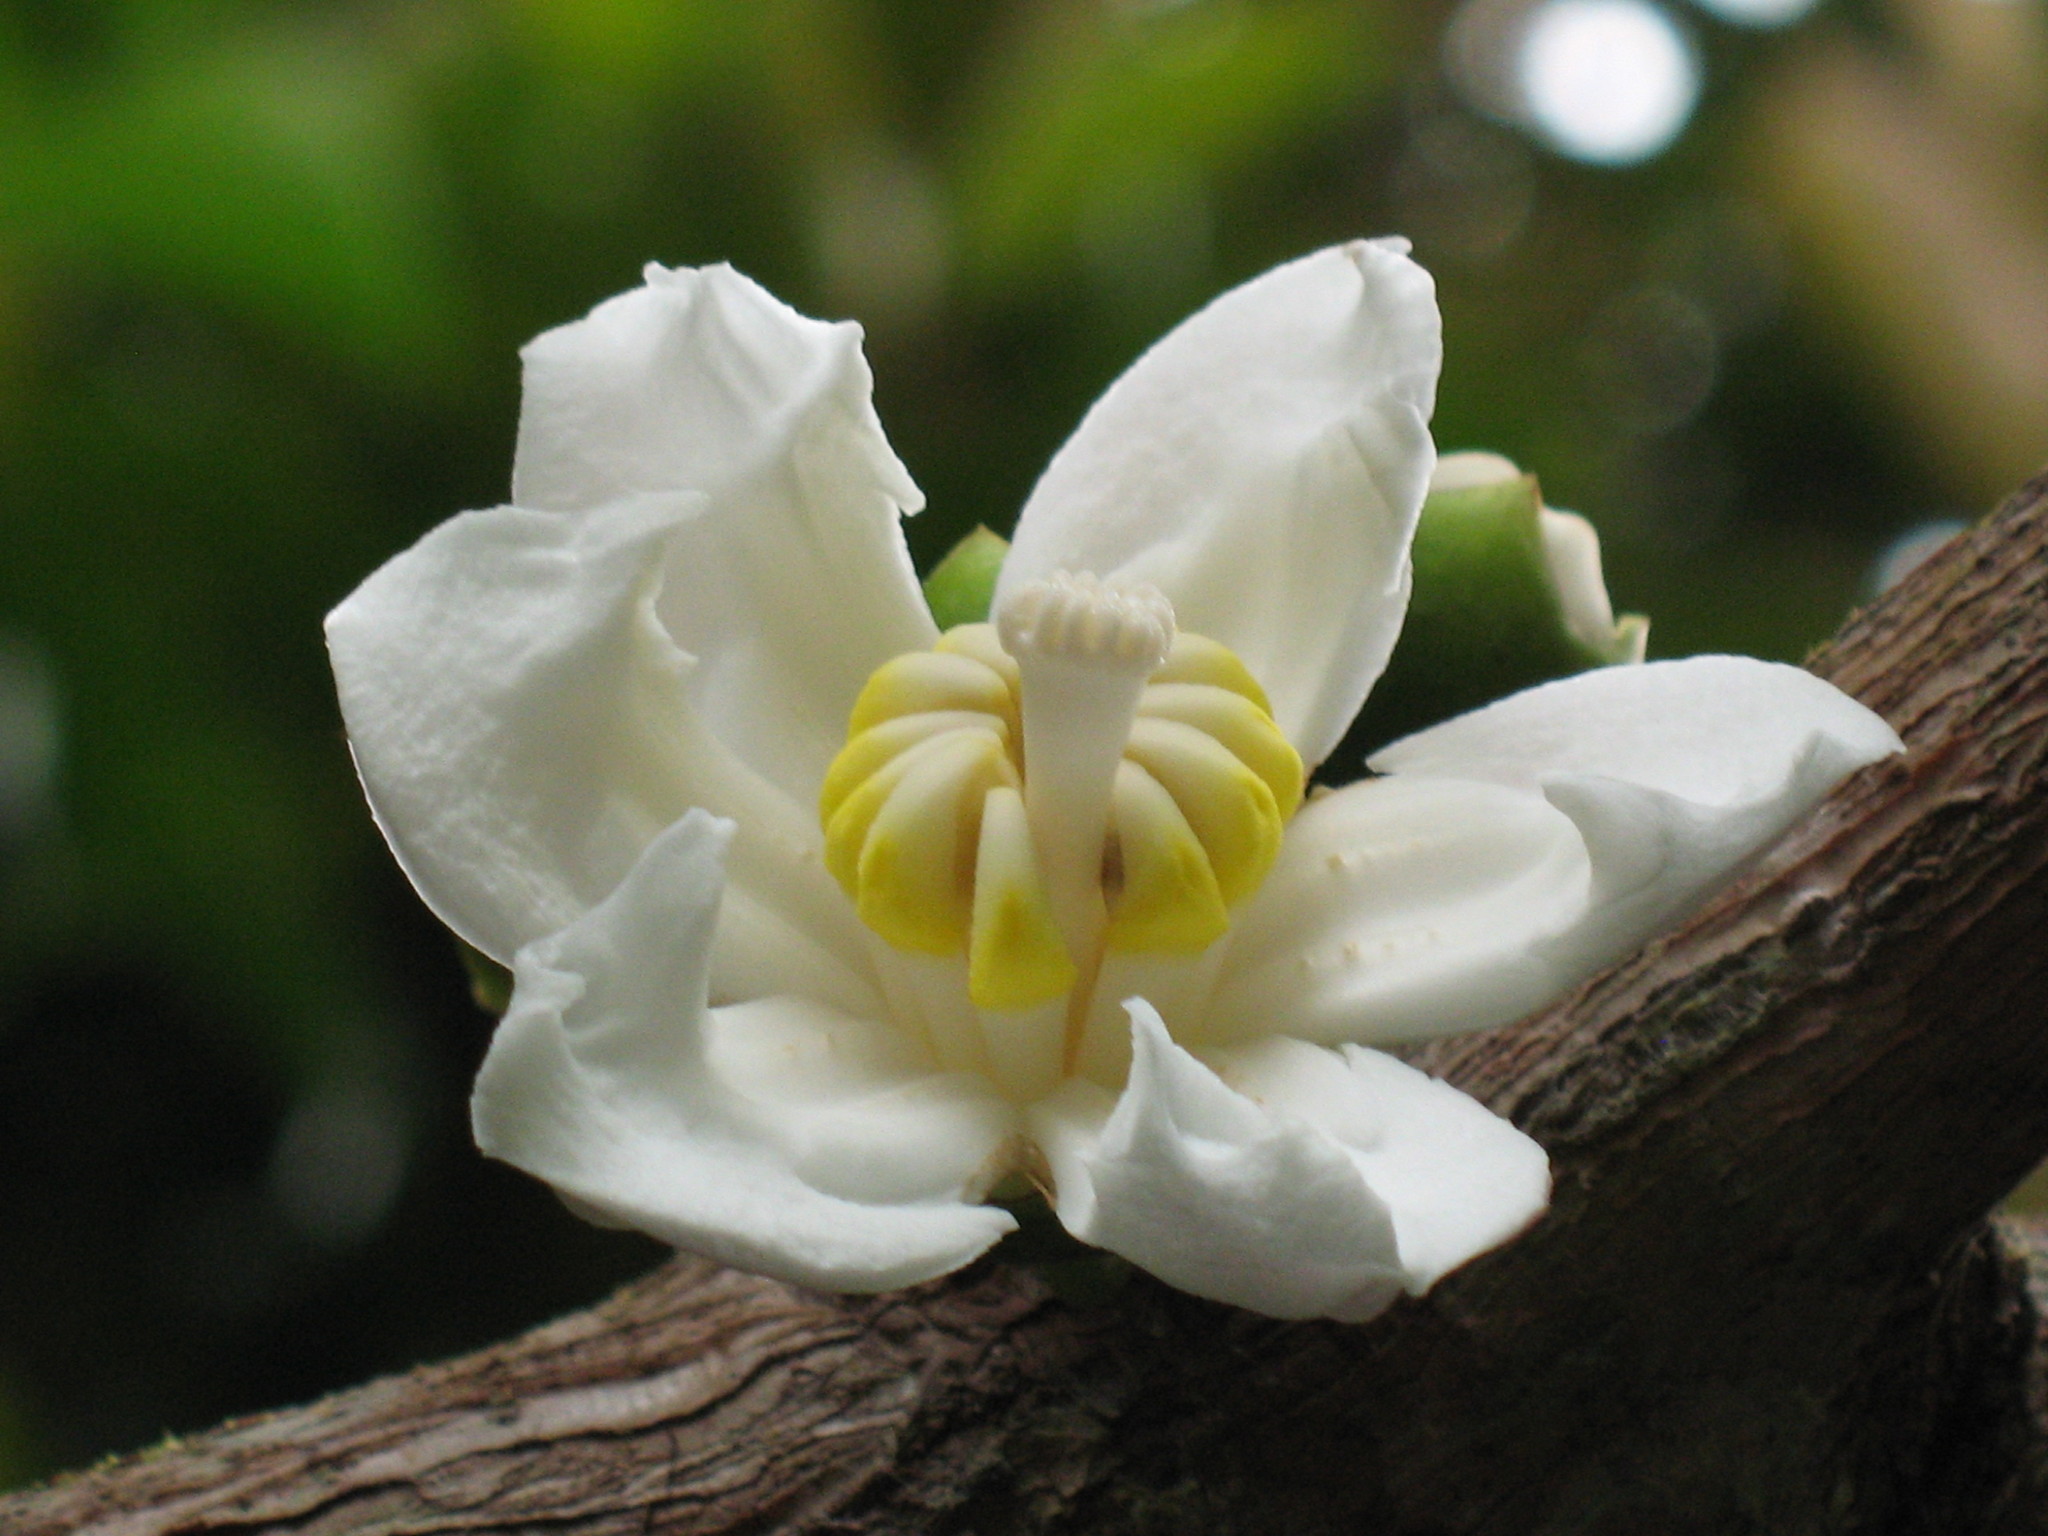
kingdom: Plantae
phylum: Tracheophyta
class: Magnoliopsida
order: Myrtales
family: Melastomataceae
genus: Bellucia
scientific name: Bellucia pentamera
